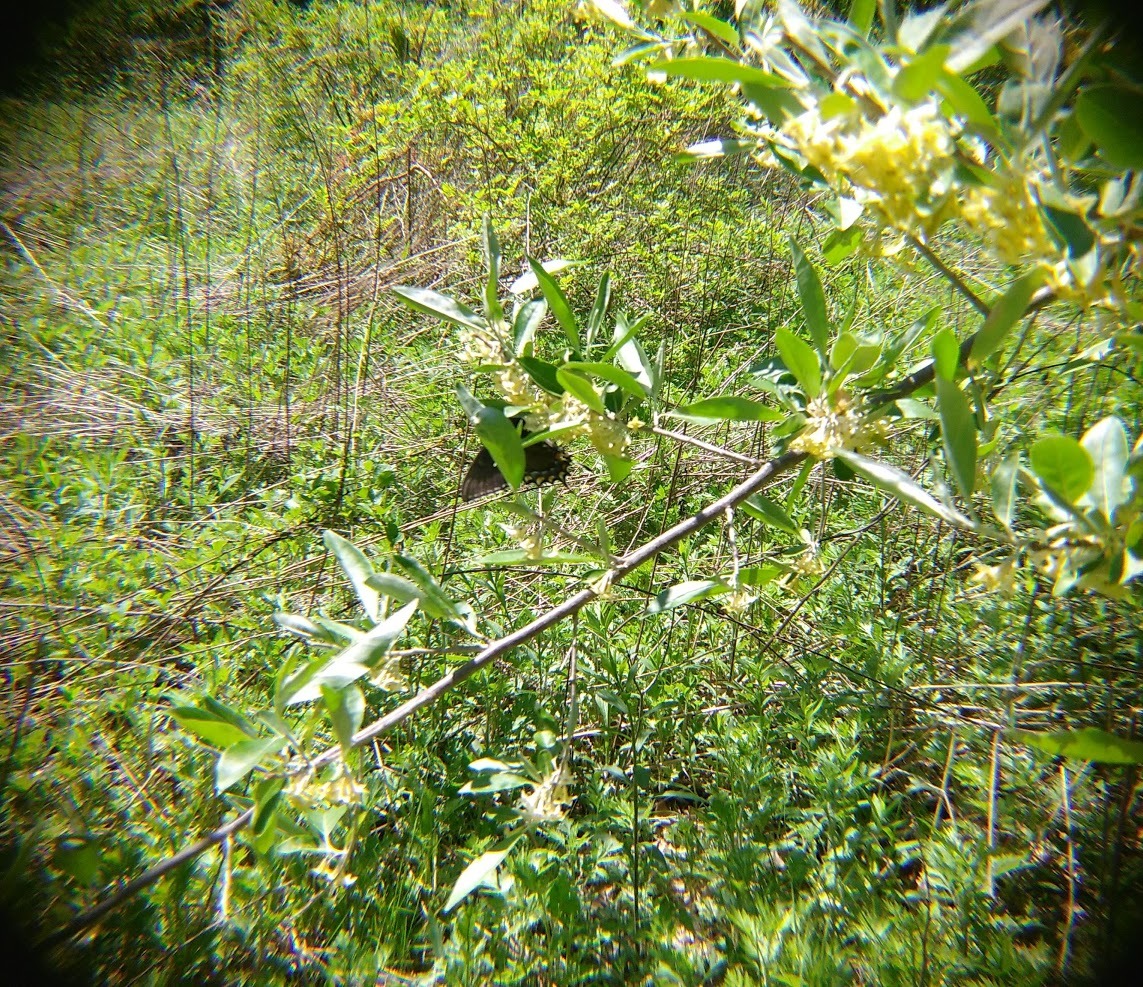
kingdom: Animalia
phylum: Arthropoda
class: Insecta
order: Lepidoptera
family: Papilionidae
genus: Papilio
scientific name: Papilio glaucus
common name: Tiger swallowtail
